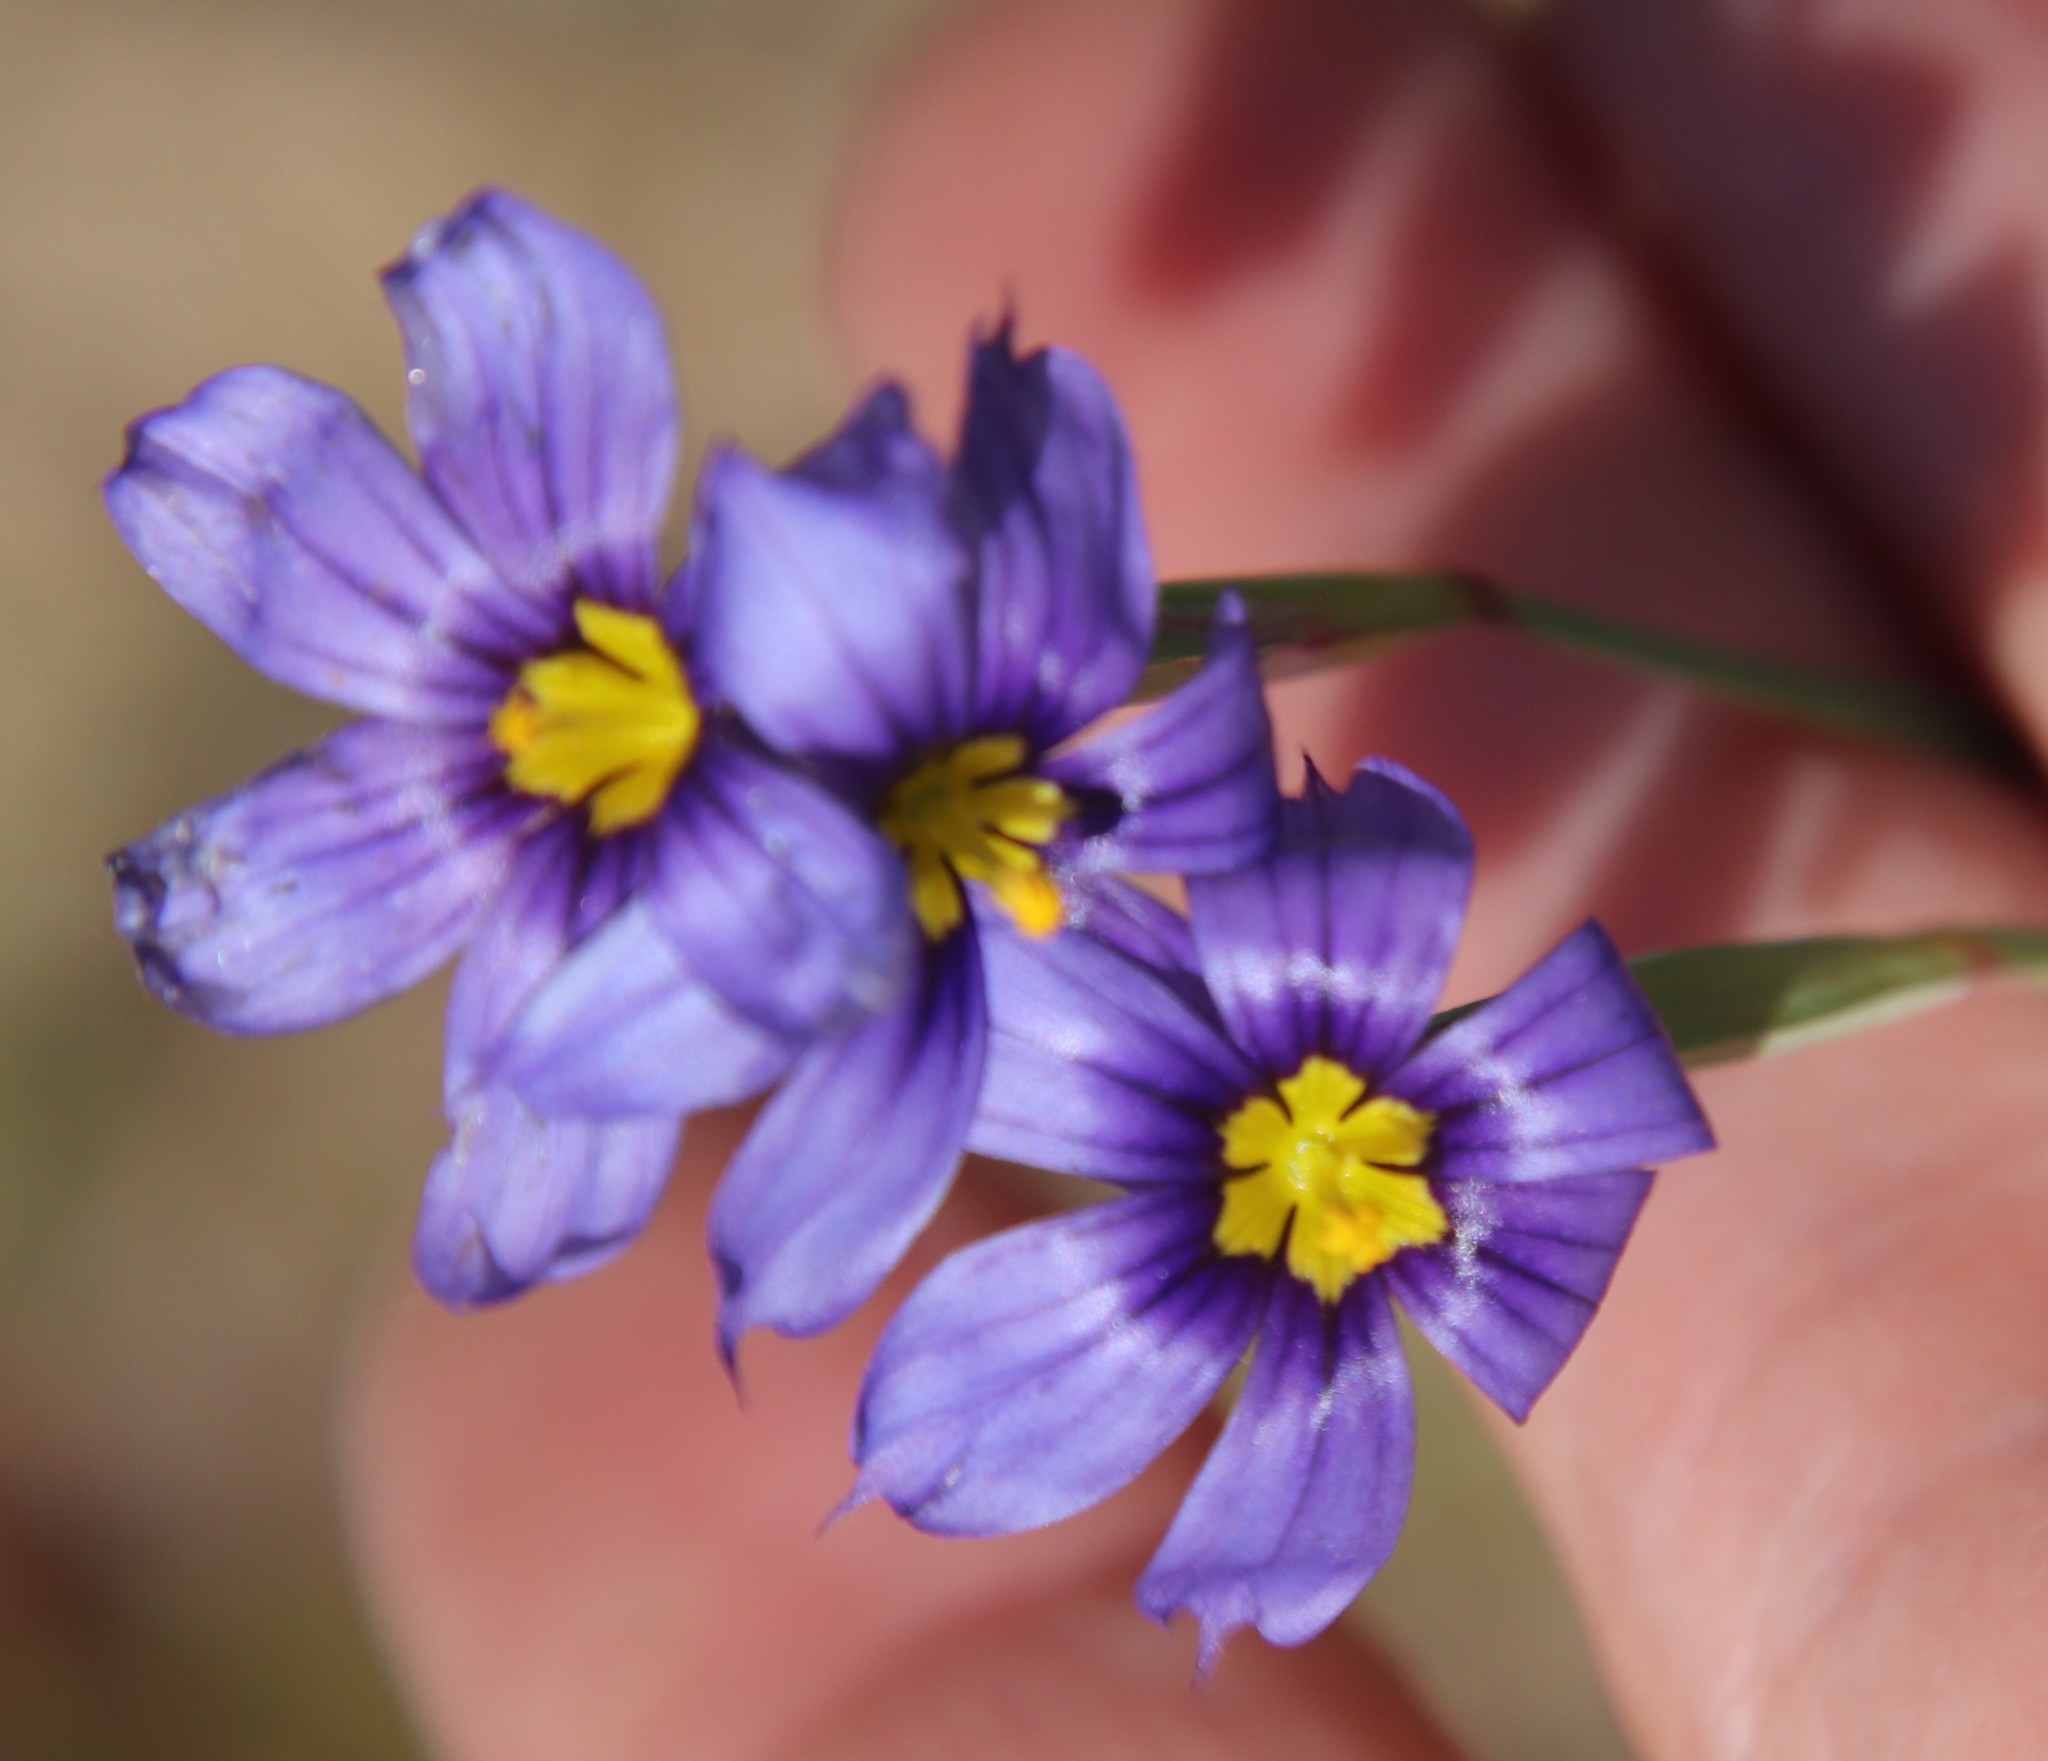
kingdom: Plantae
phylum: Tracheophyta
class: Liliopsida
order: Asparagales
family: Iridaceae
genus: Sisyrinchium
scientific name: Sisyrinchium bellum
